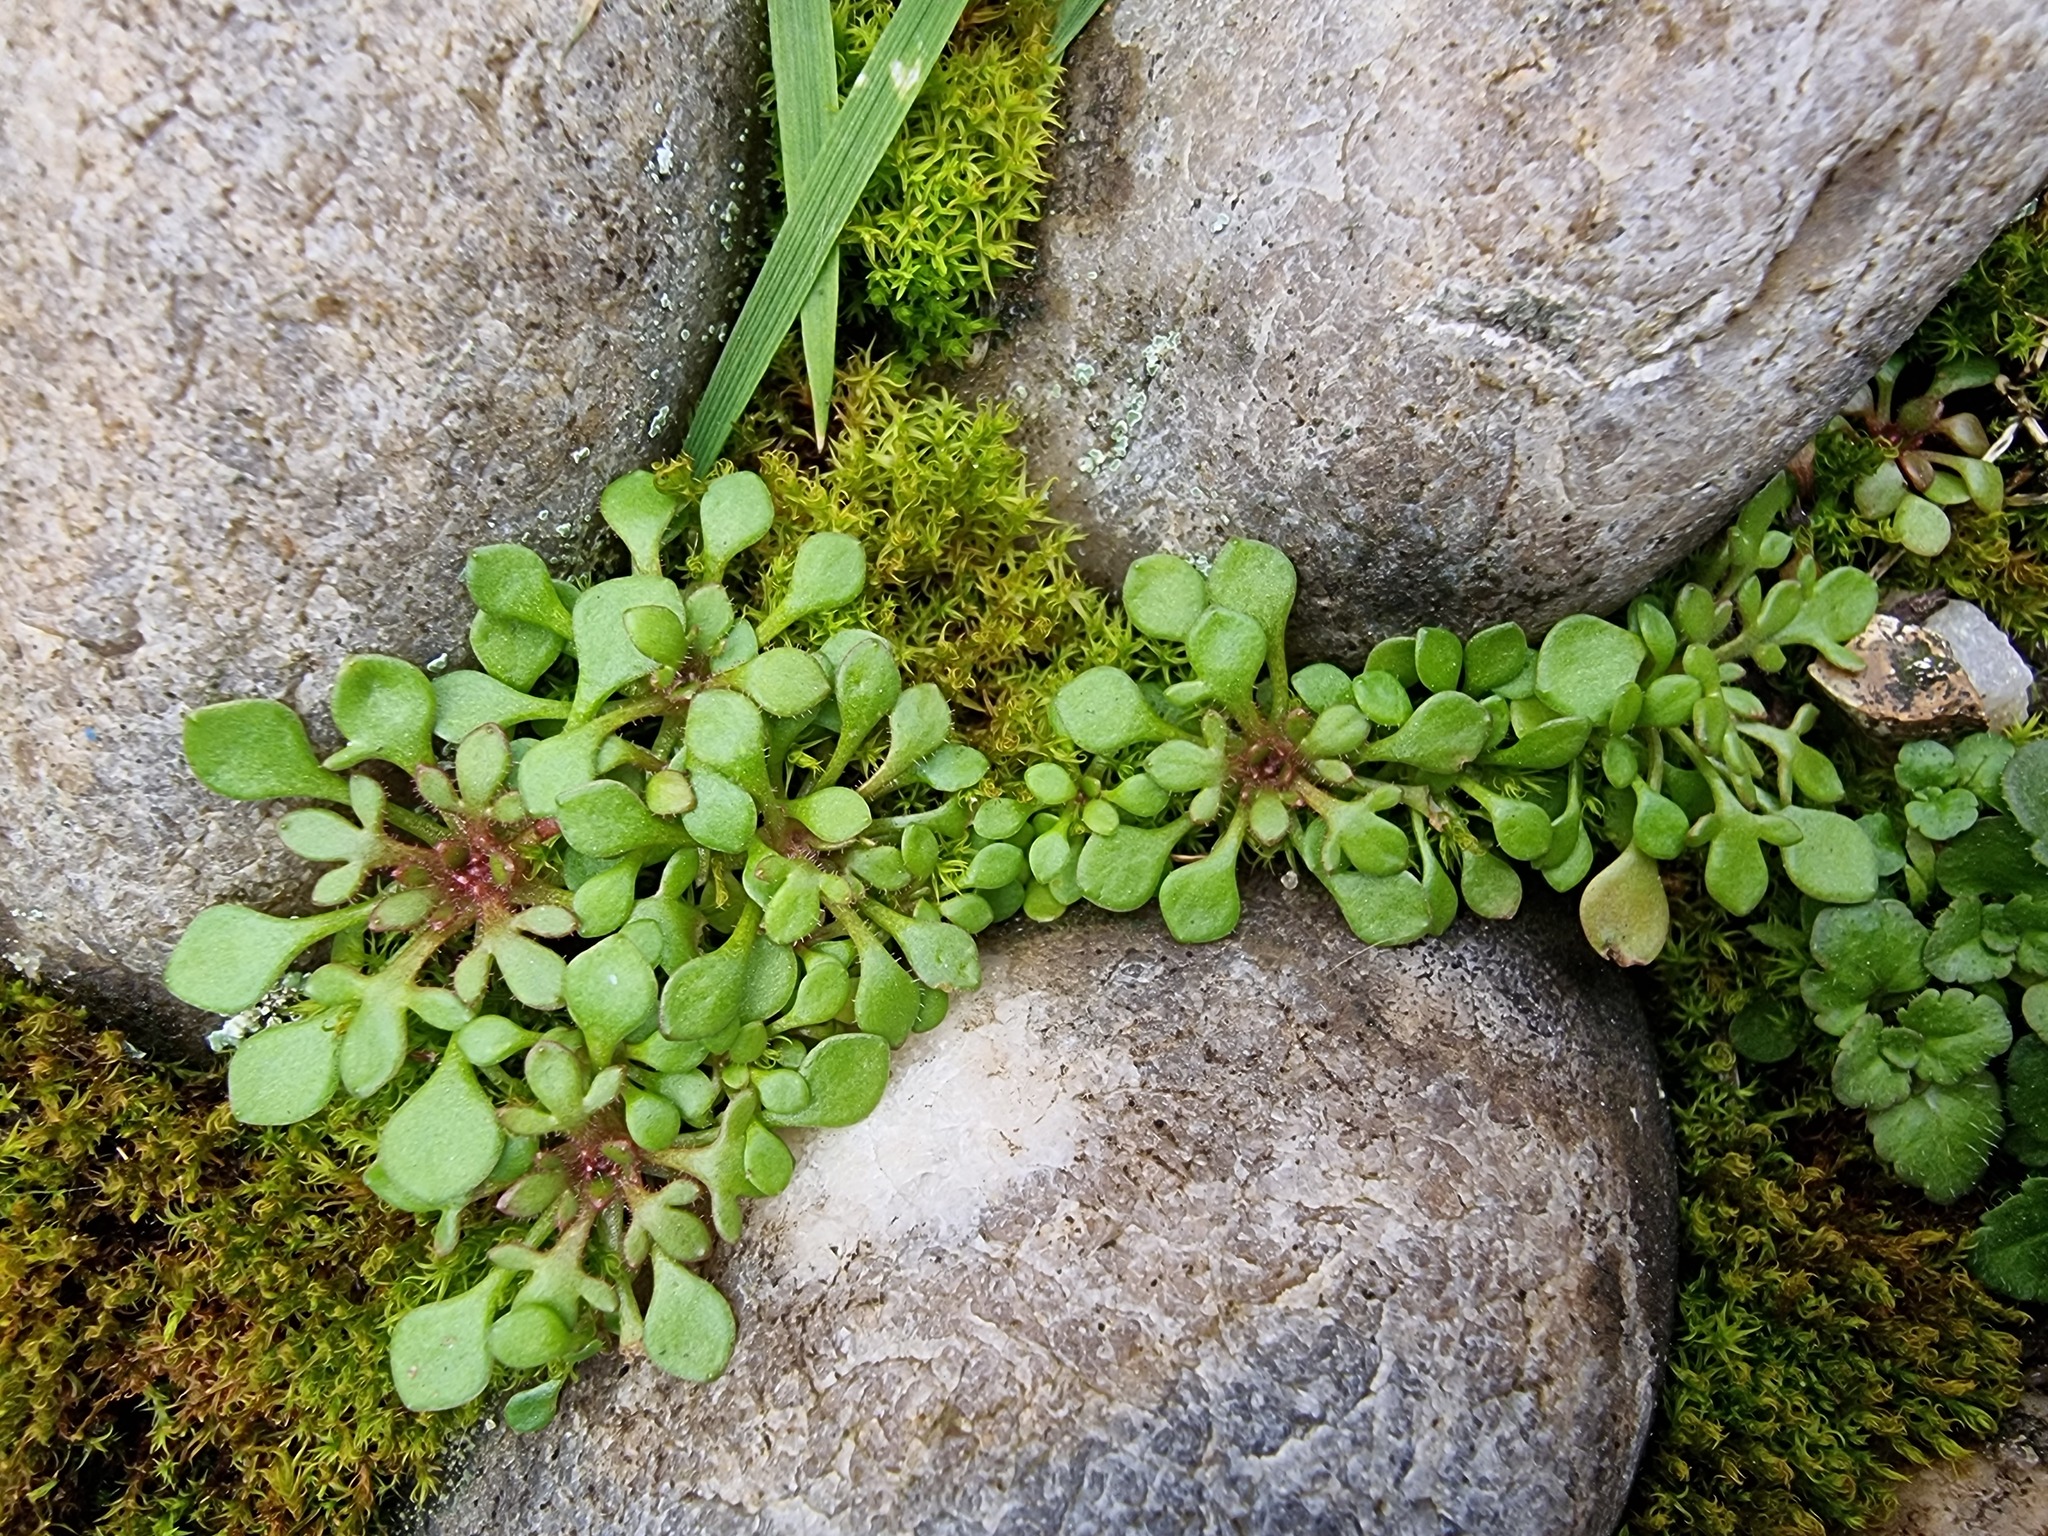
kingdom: Plantae
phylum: Tracheophyta
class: Magnoliopsida
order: Saxifragales
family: Saxifragaceae
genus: Saxifraga
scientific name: Saxifraga tridactylites
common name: Rue-leaved saxifrage
